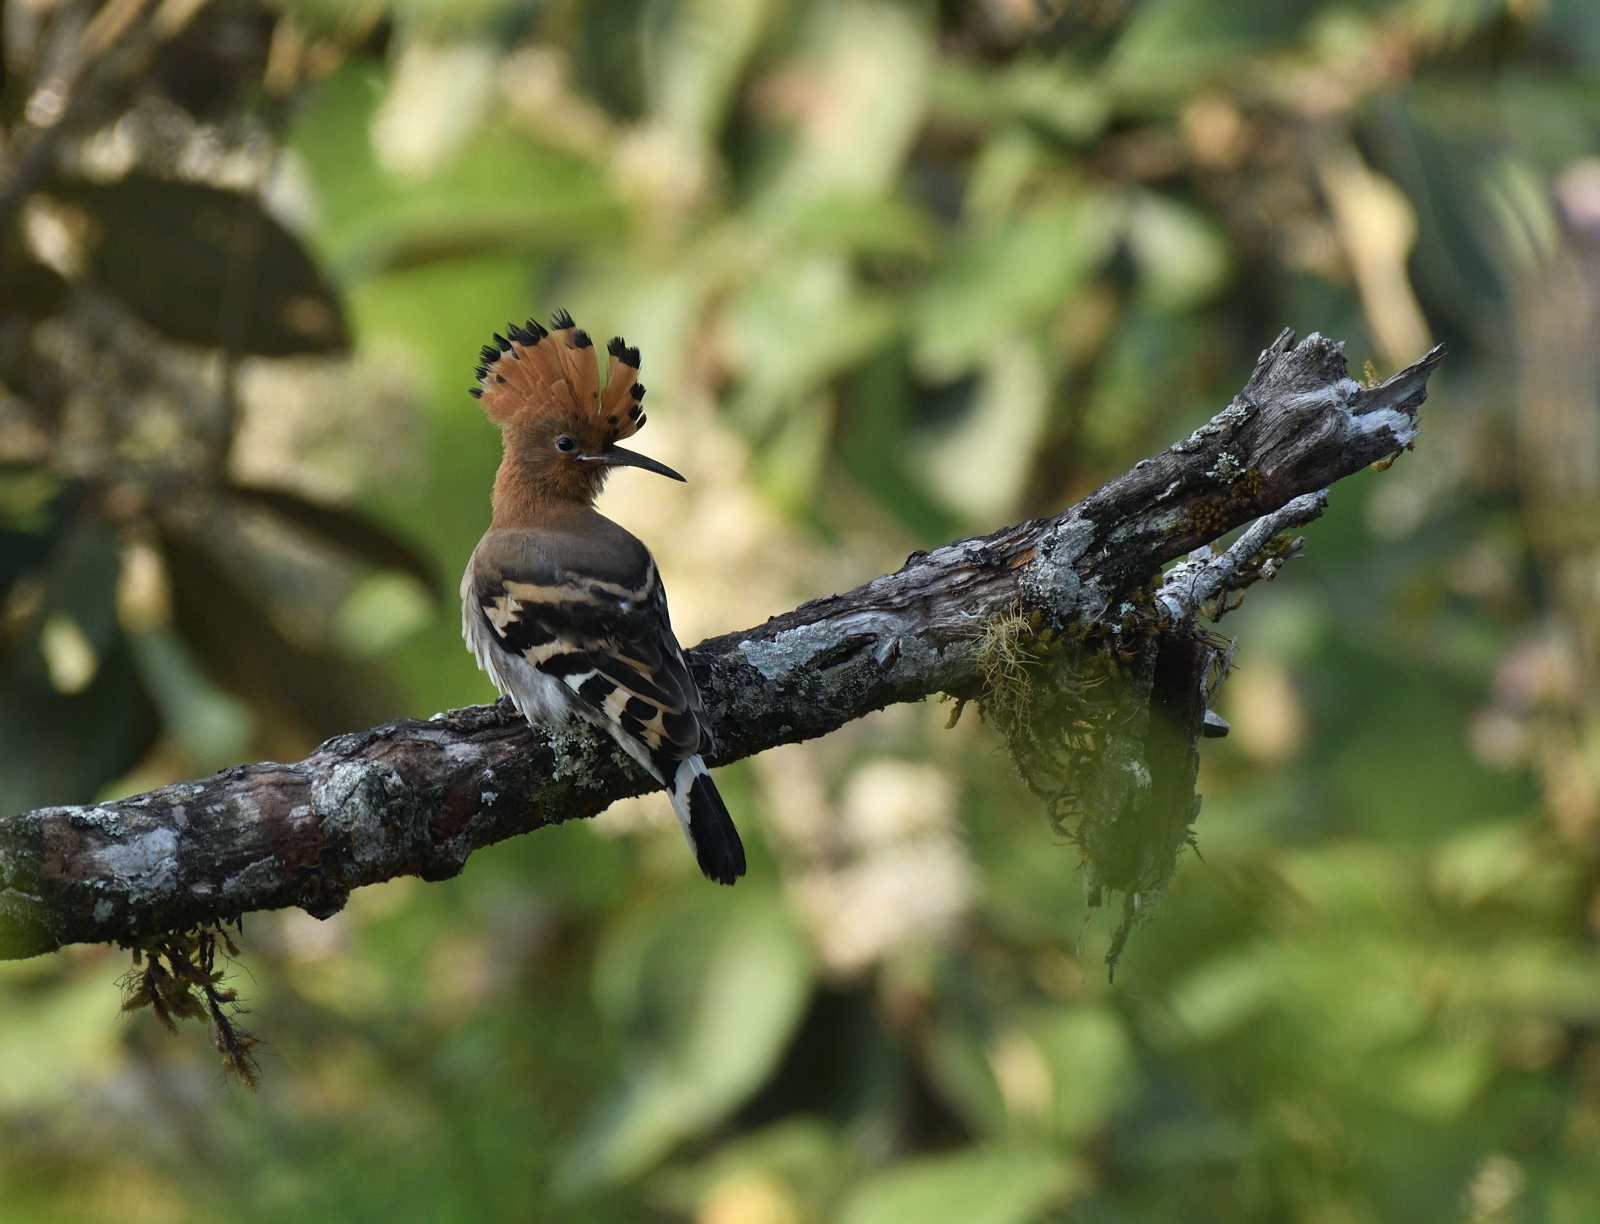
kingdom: Animalia
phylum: Chordata
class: Aves
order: Bucerotiformes
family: Upupidae
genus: Upupa
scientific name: Upupa epops
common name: Eurasian hoopoe
